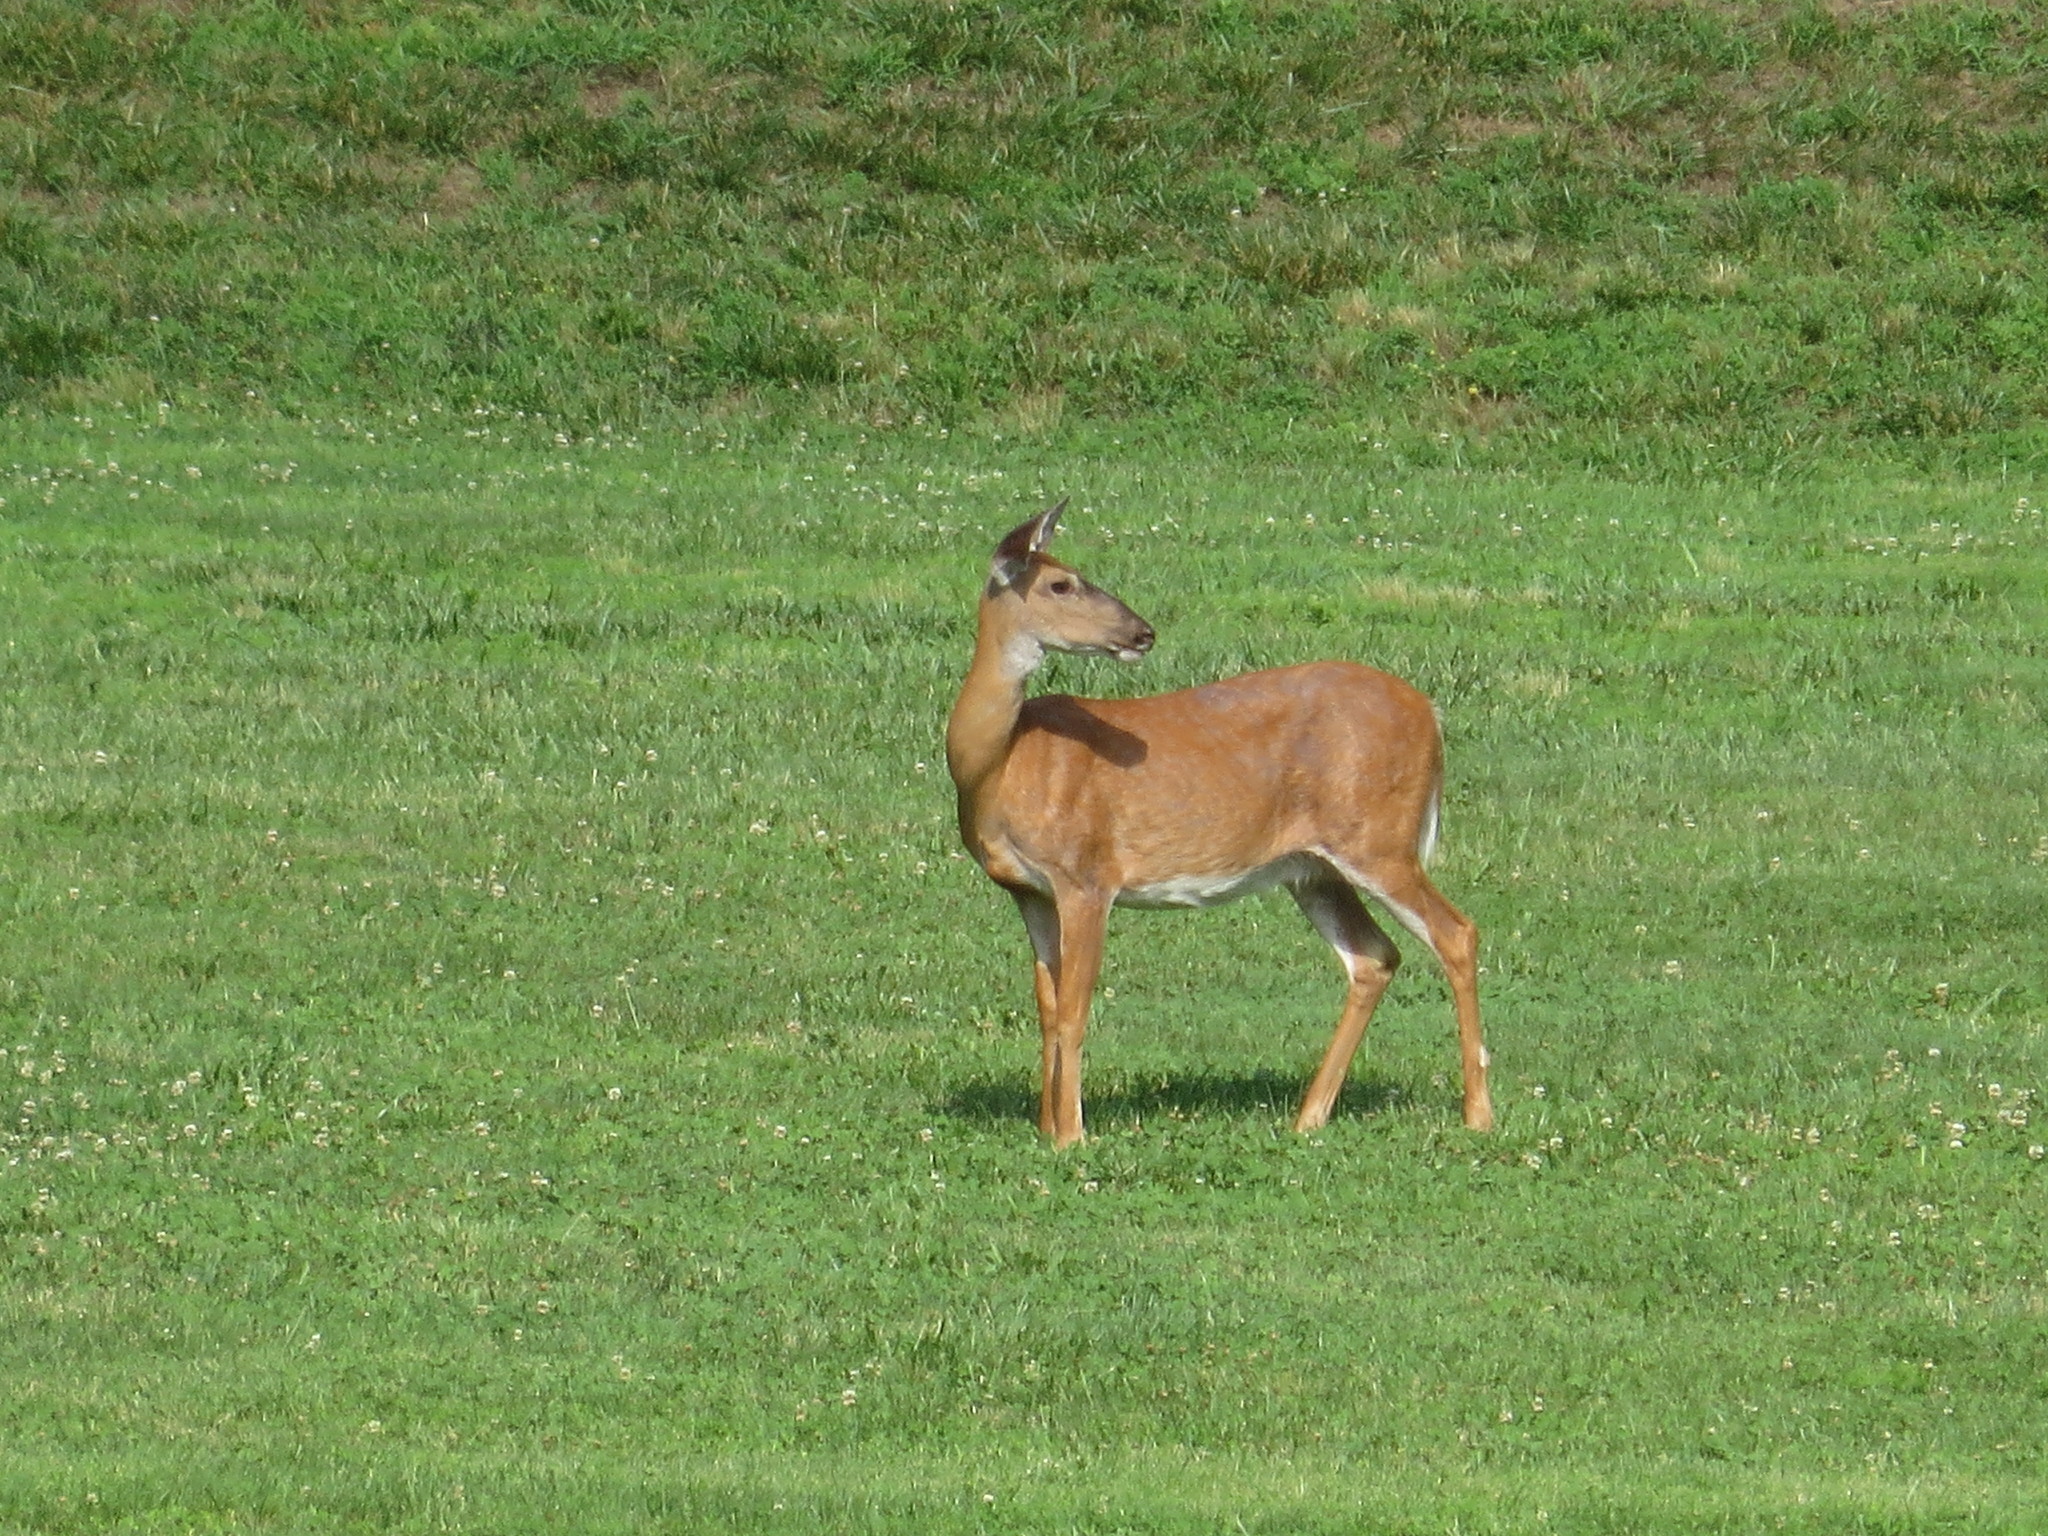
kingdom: Animalia
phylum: Chordata
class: Mammalia
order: Artiodactyla
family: Cervidae
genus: Odocoileus
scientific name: Odocoileus virginianus
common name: White-tailed deer
